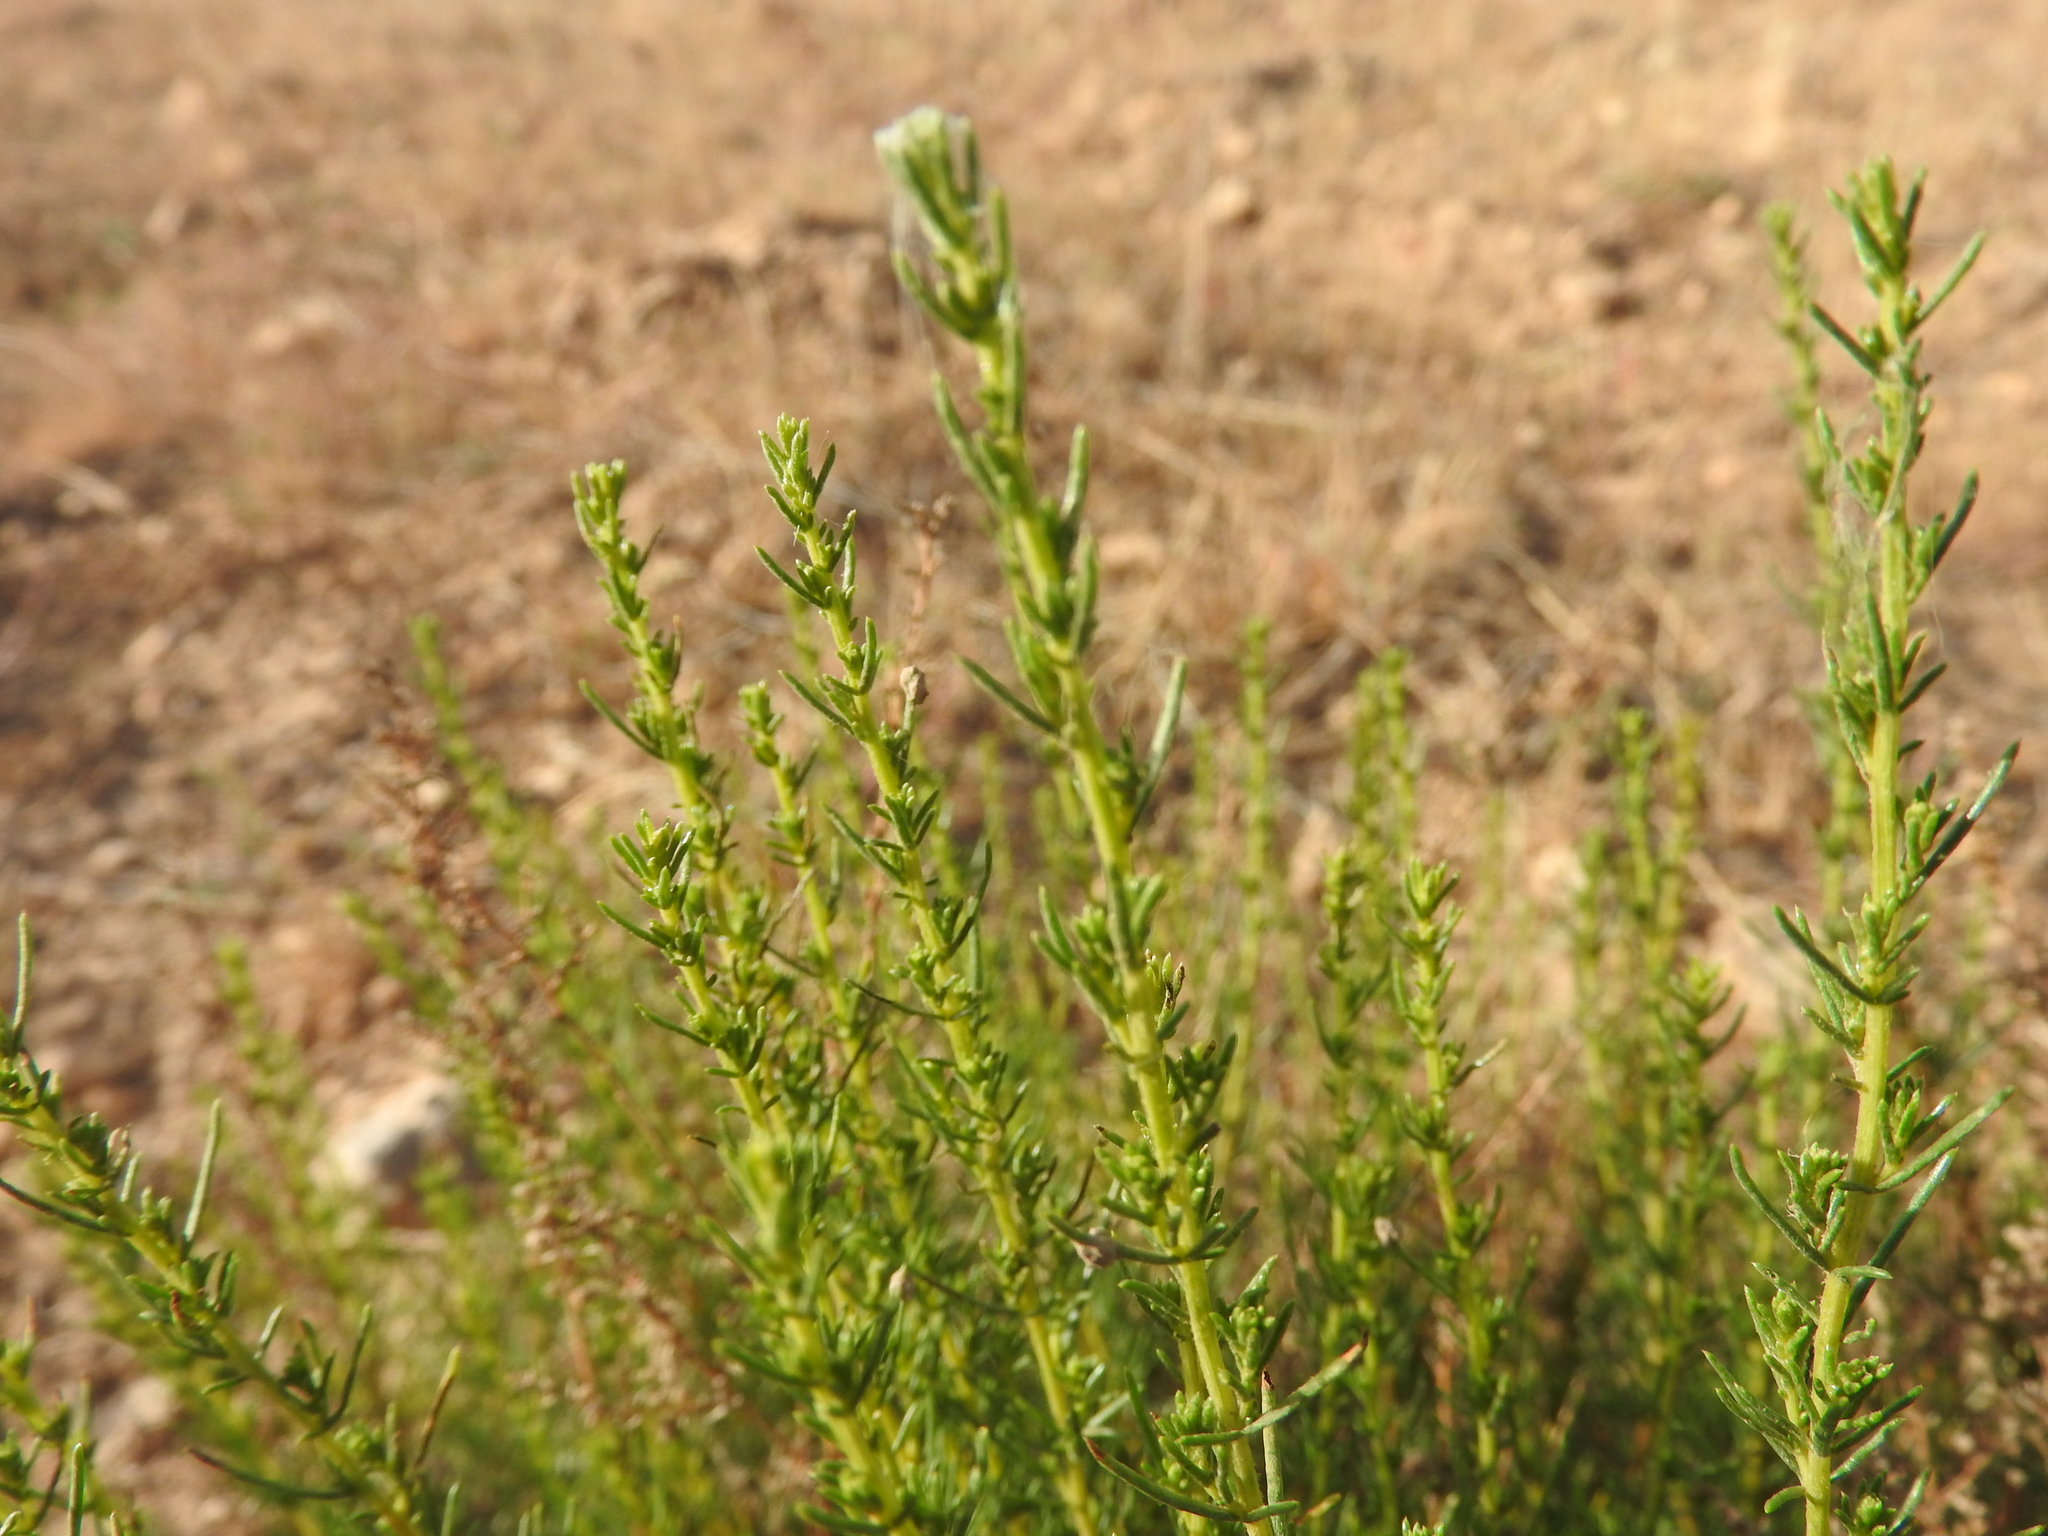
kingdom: Plantae
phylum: Tracheophyta
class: Magnoliopsida
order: Asterales
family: Asteraceae
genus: Artemisia
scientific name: Artemisia campestris
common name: Field wormwood
